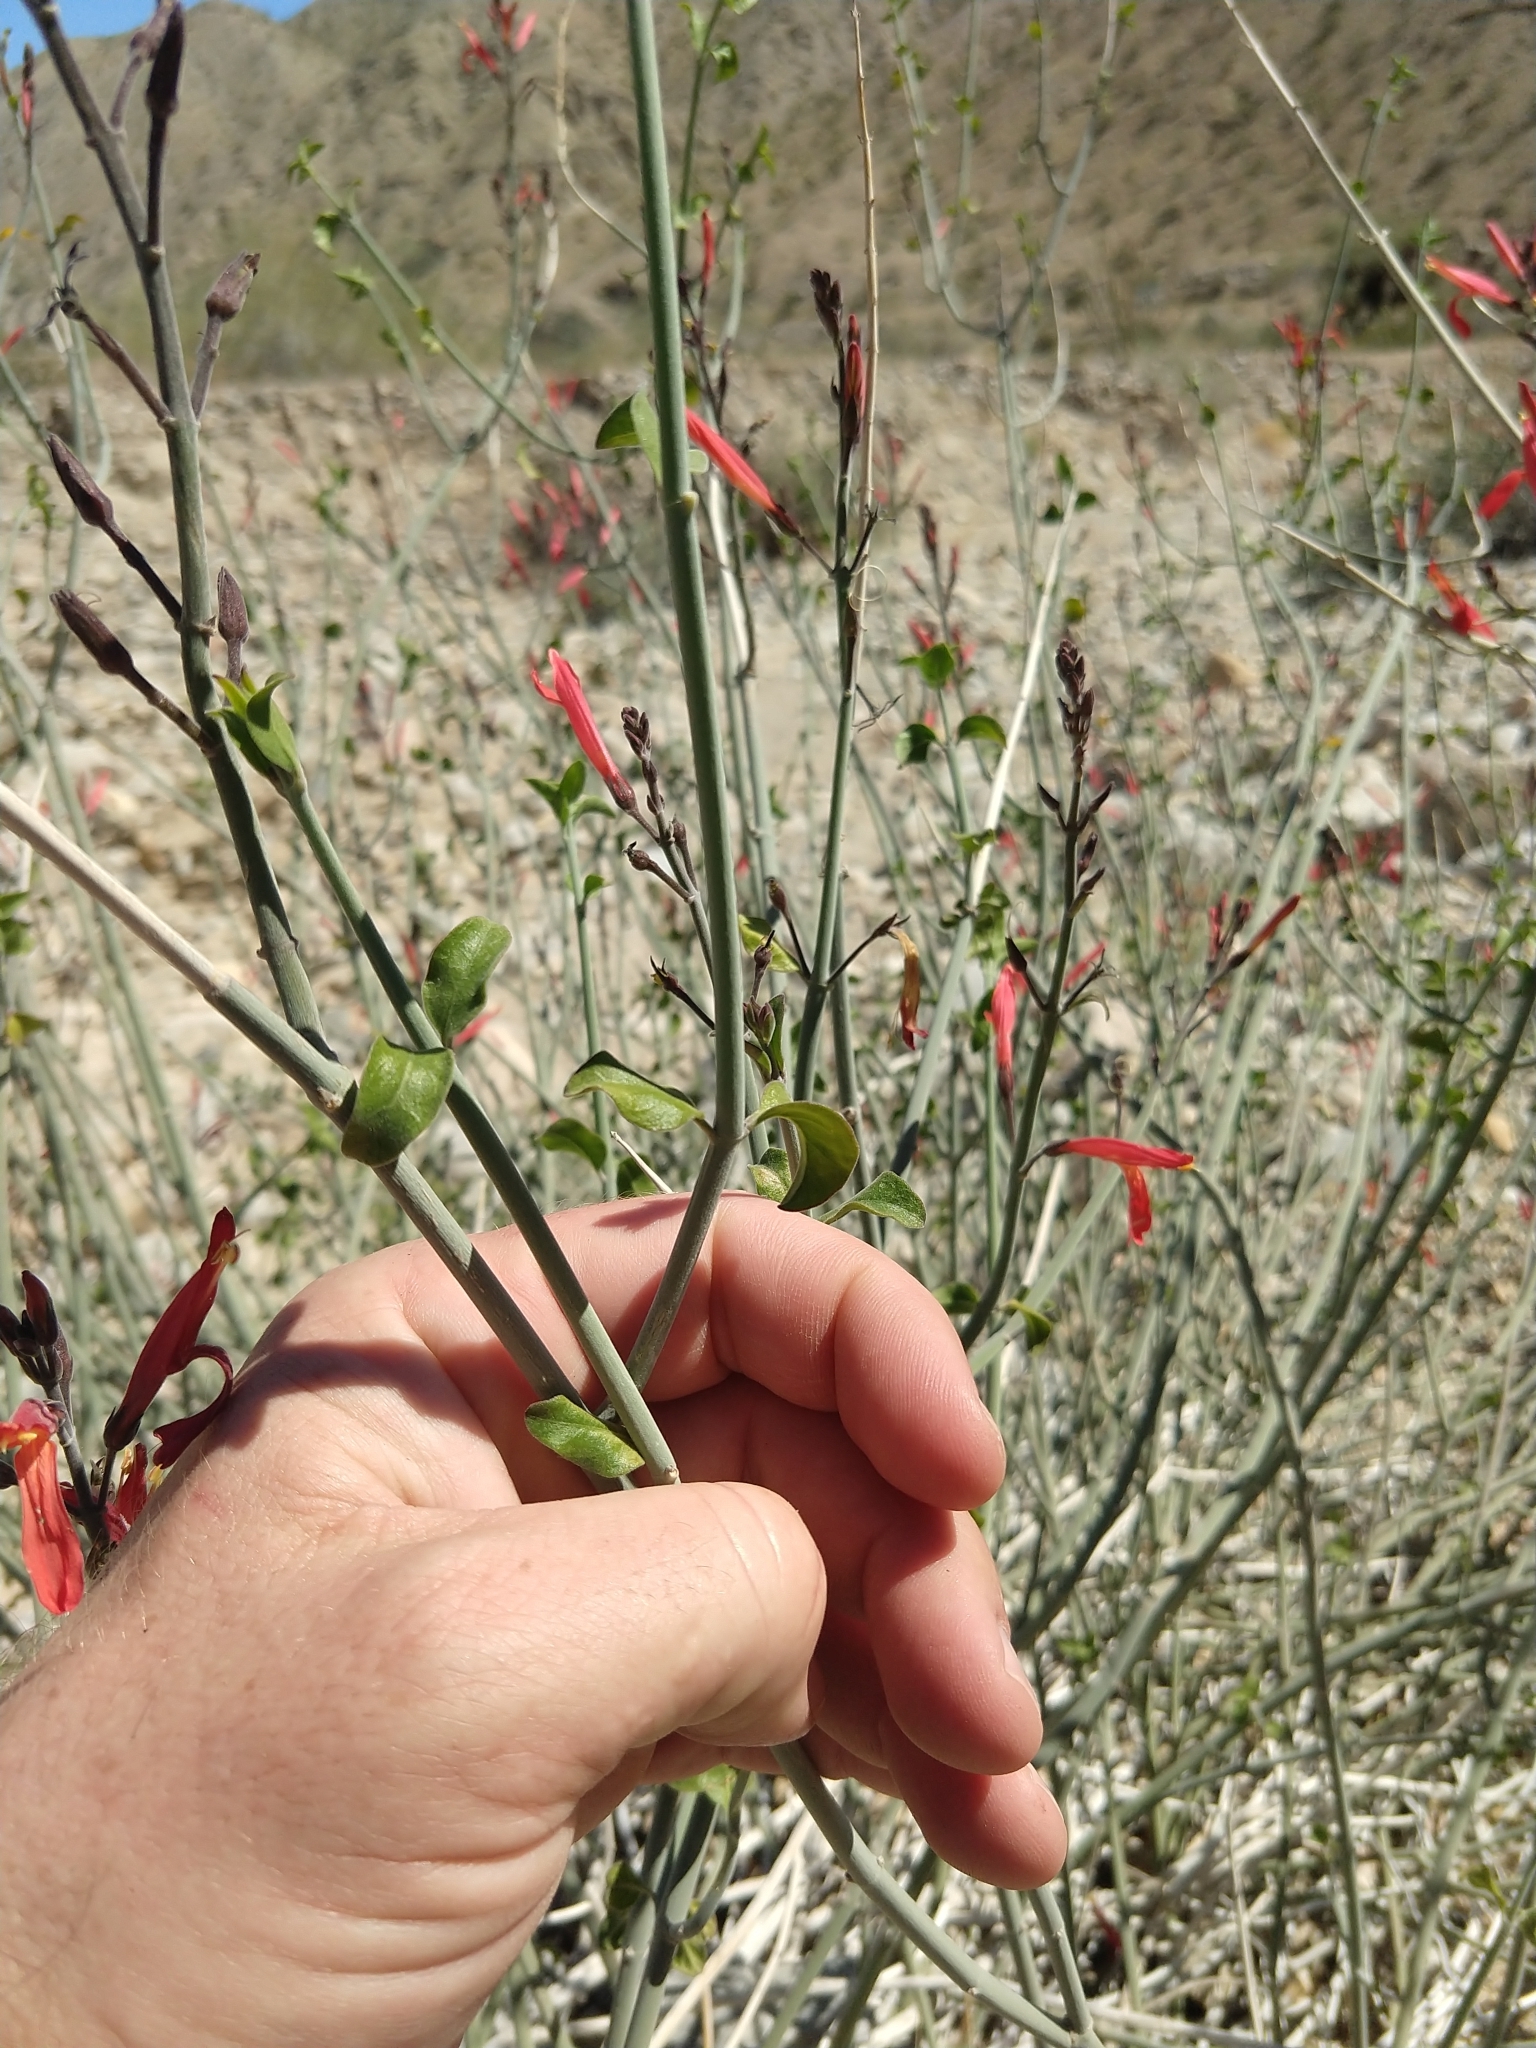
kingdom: Plantae
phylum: Tracheophyta
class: Magnoliopsida
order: Lamiales
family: Acanthaceae
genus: Justicia
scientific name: Justicia californica
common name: Chuparosa-honeysuckle
